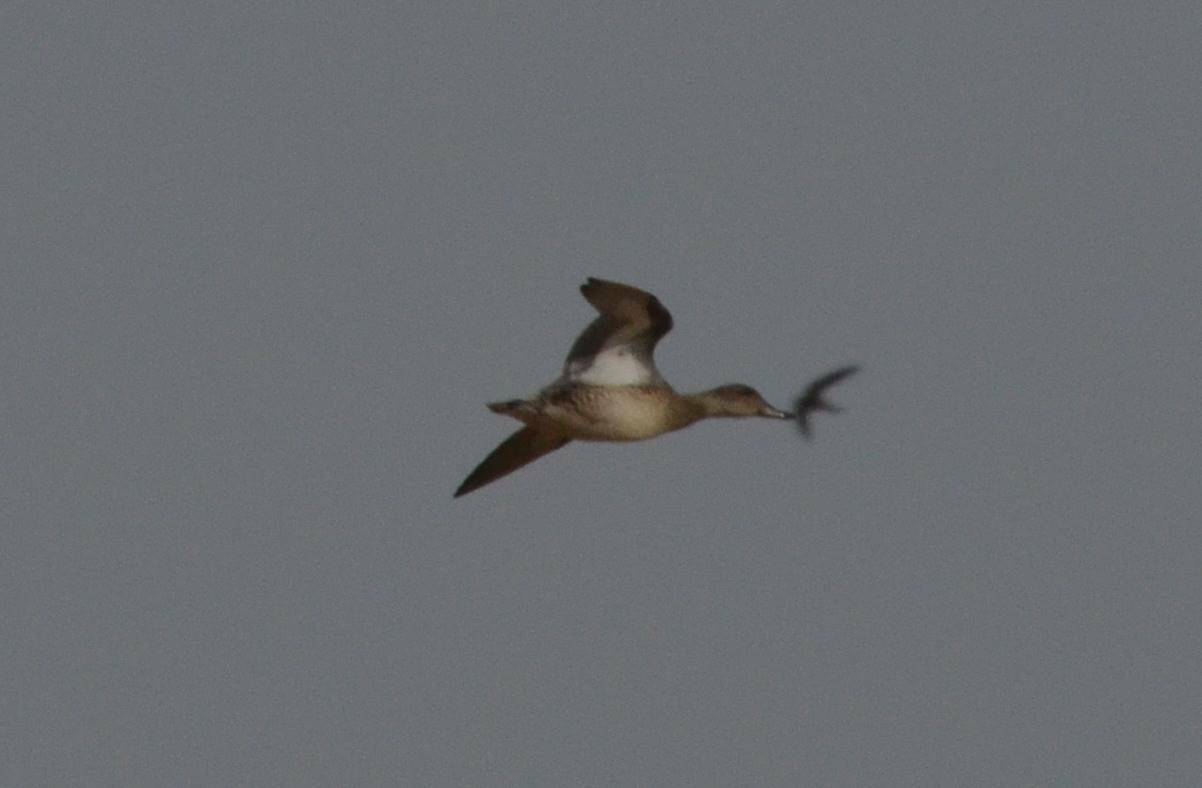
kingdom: Animalia
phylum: Chordata
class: Aves
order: Anseriformes
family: Anatidae
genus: Anas
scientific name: Anas crecca
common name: Eurasian teal
